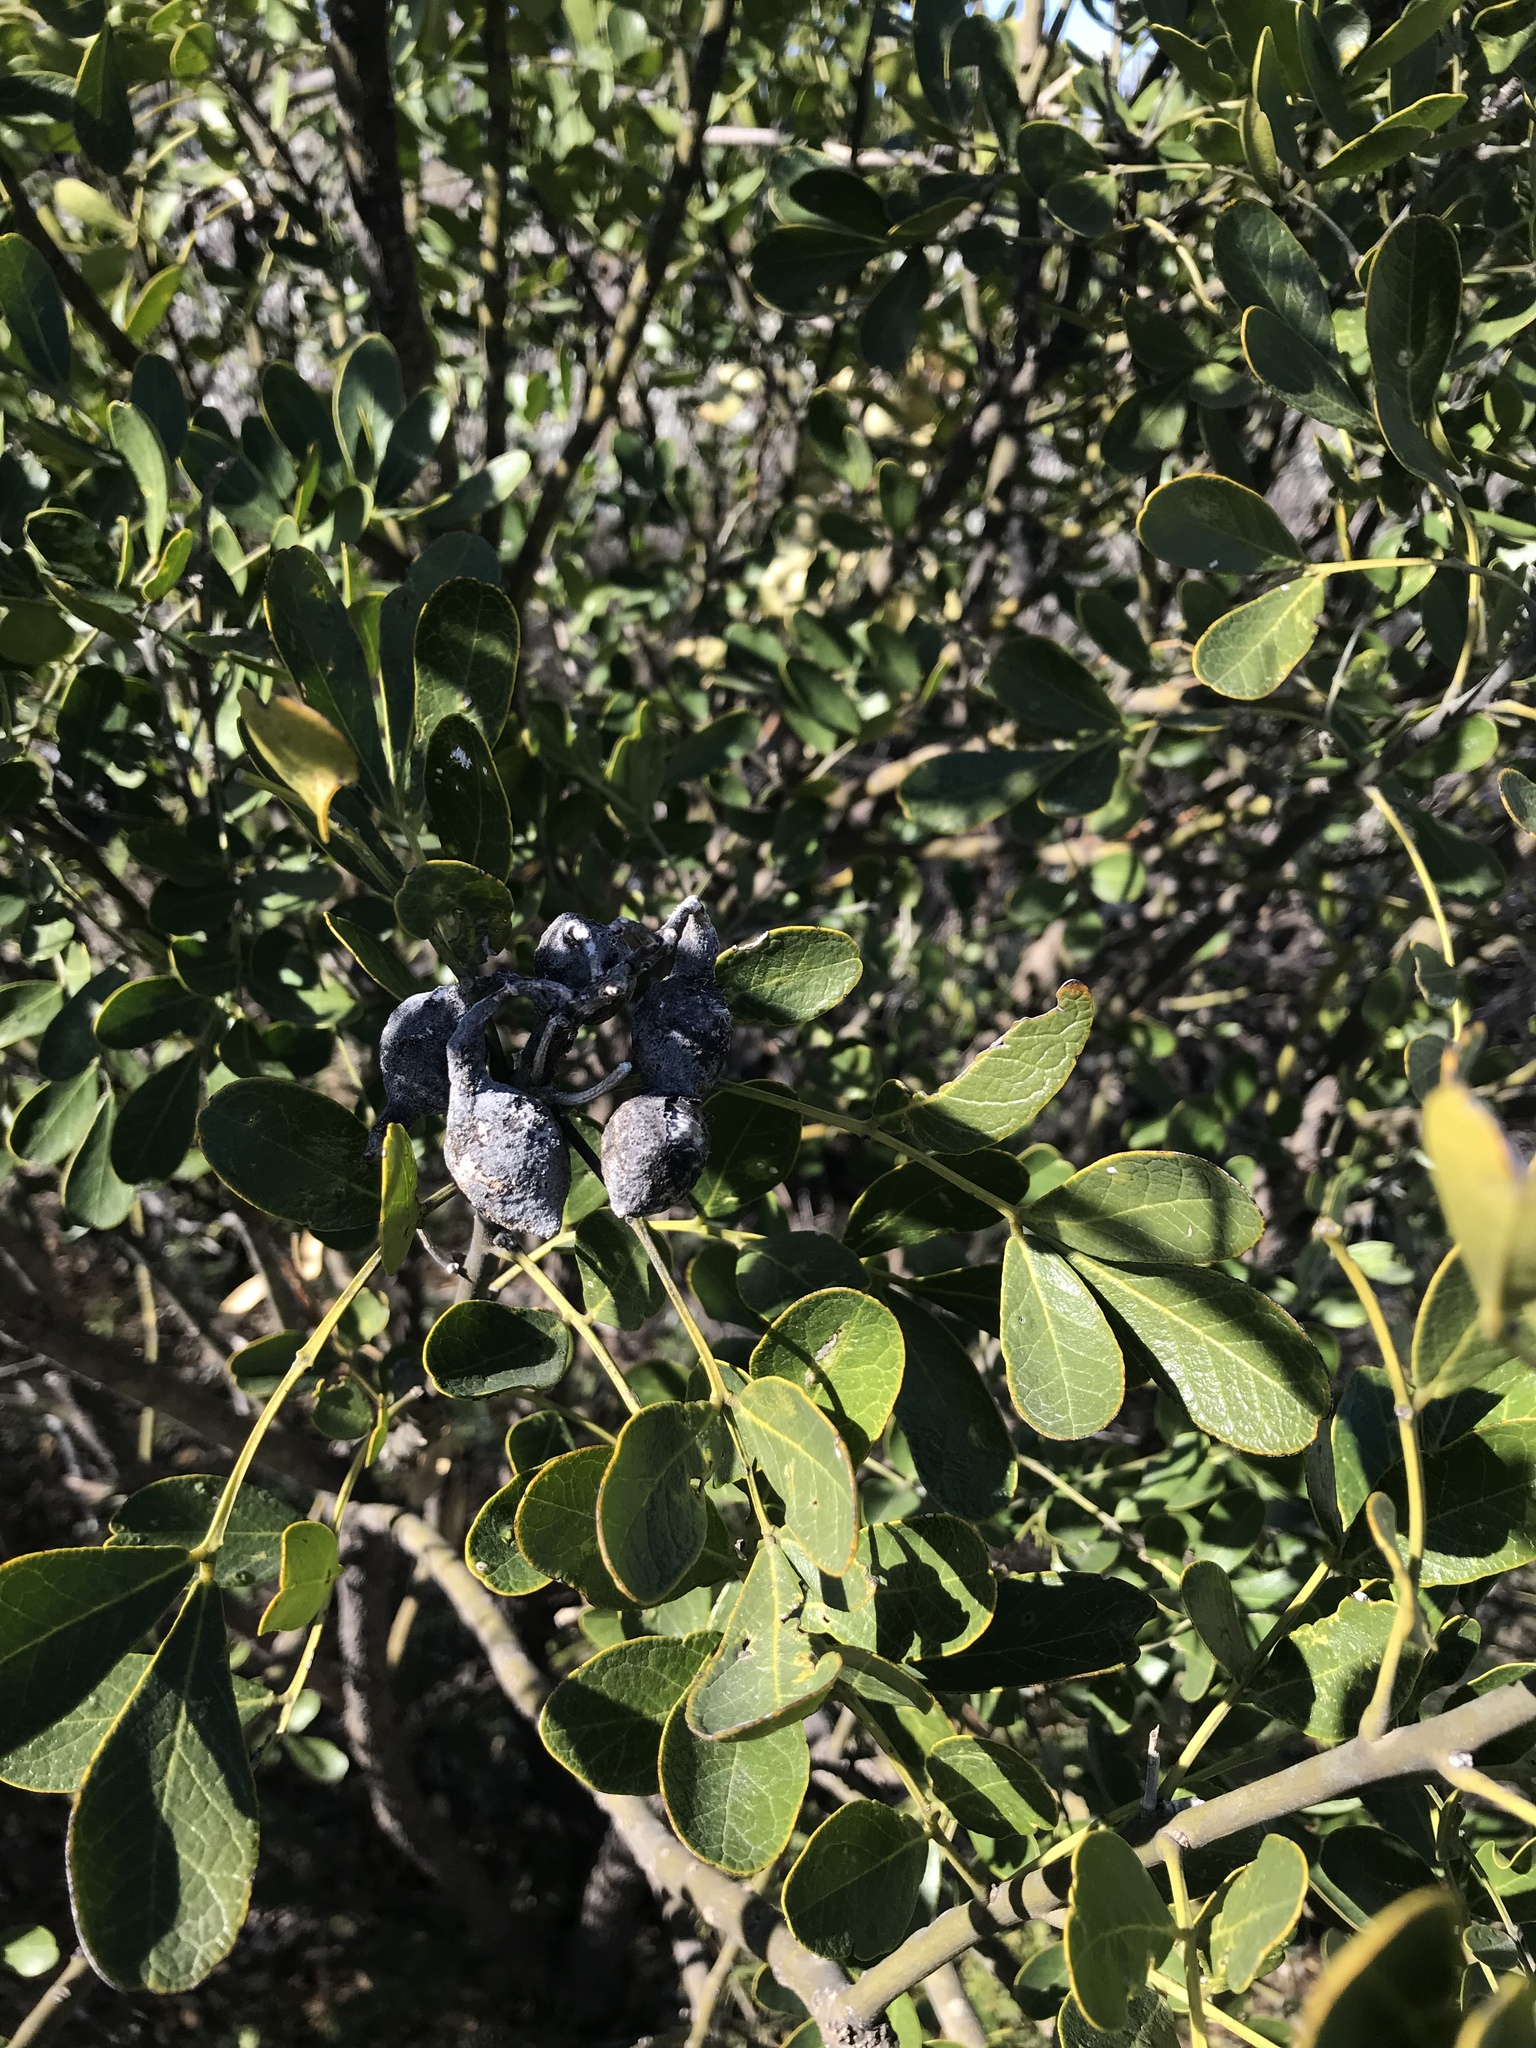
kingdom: Plantae
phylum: Tracheophyta
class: Magnoliopsida
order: Fabales
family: Fabaceae
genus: Dermatophyllum
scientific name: Dermatophyllum secundiflorum
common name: Texas-mountain-laurel
